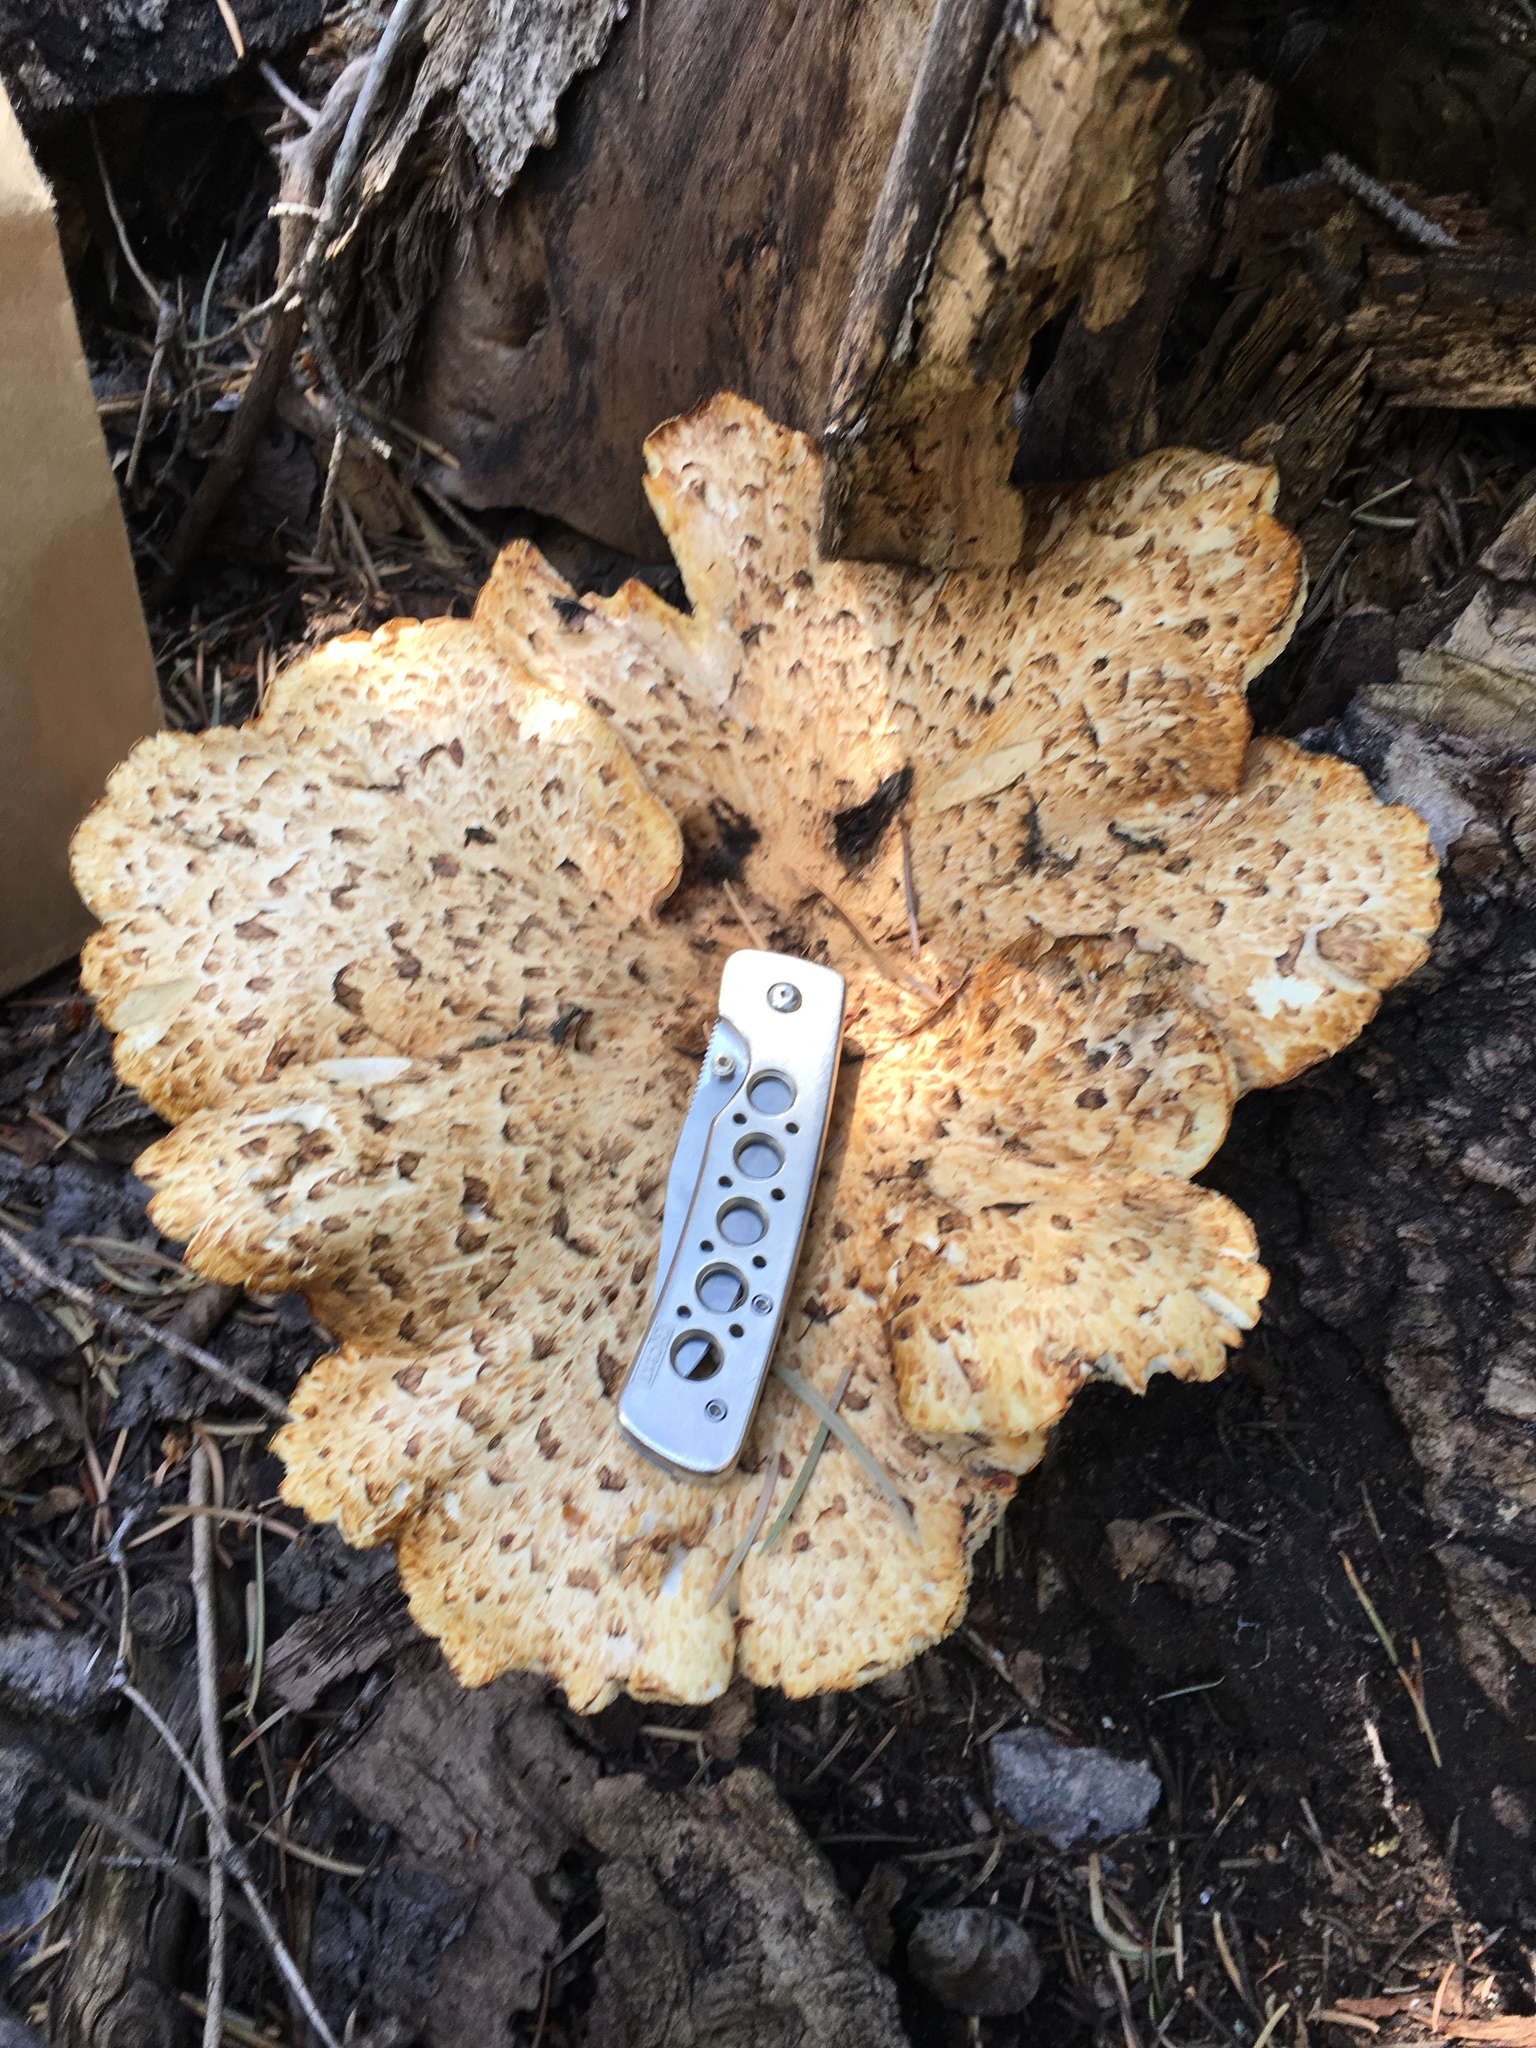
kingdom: Fungi
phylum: Basidiomycota
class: Agaricomycetes
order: Polyporales
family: Polyporaceae
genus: Cerioporus
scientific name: Cerioporus squamosus
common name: Dryad's saddle
